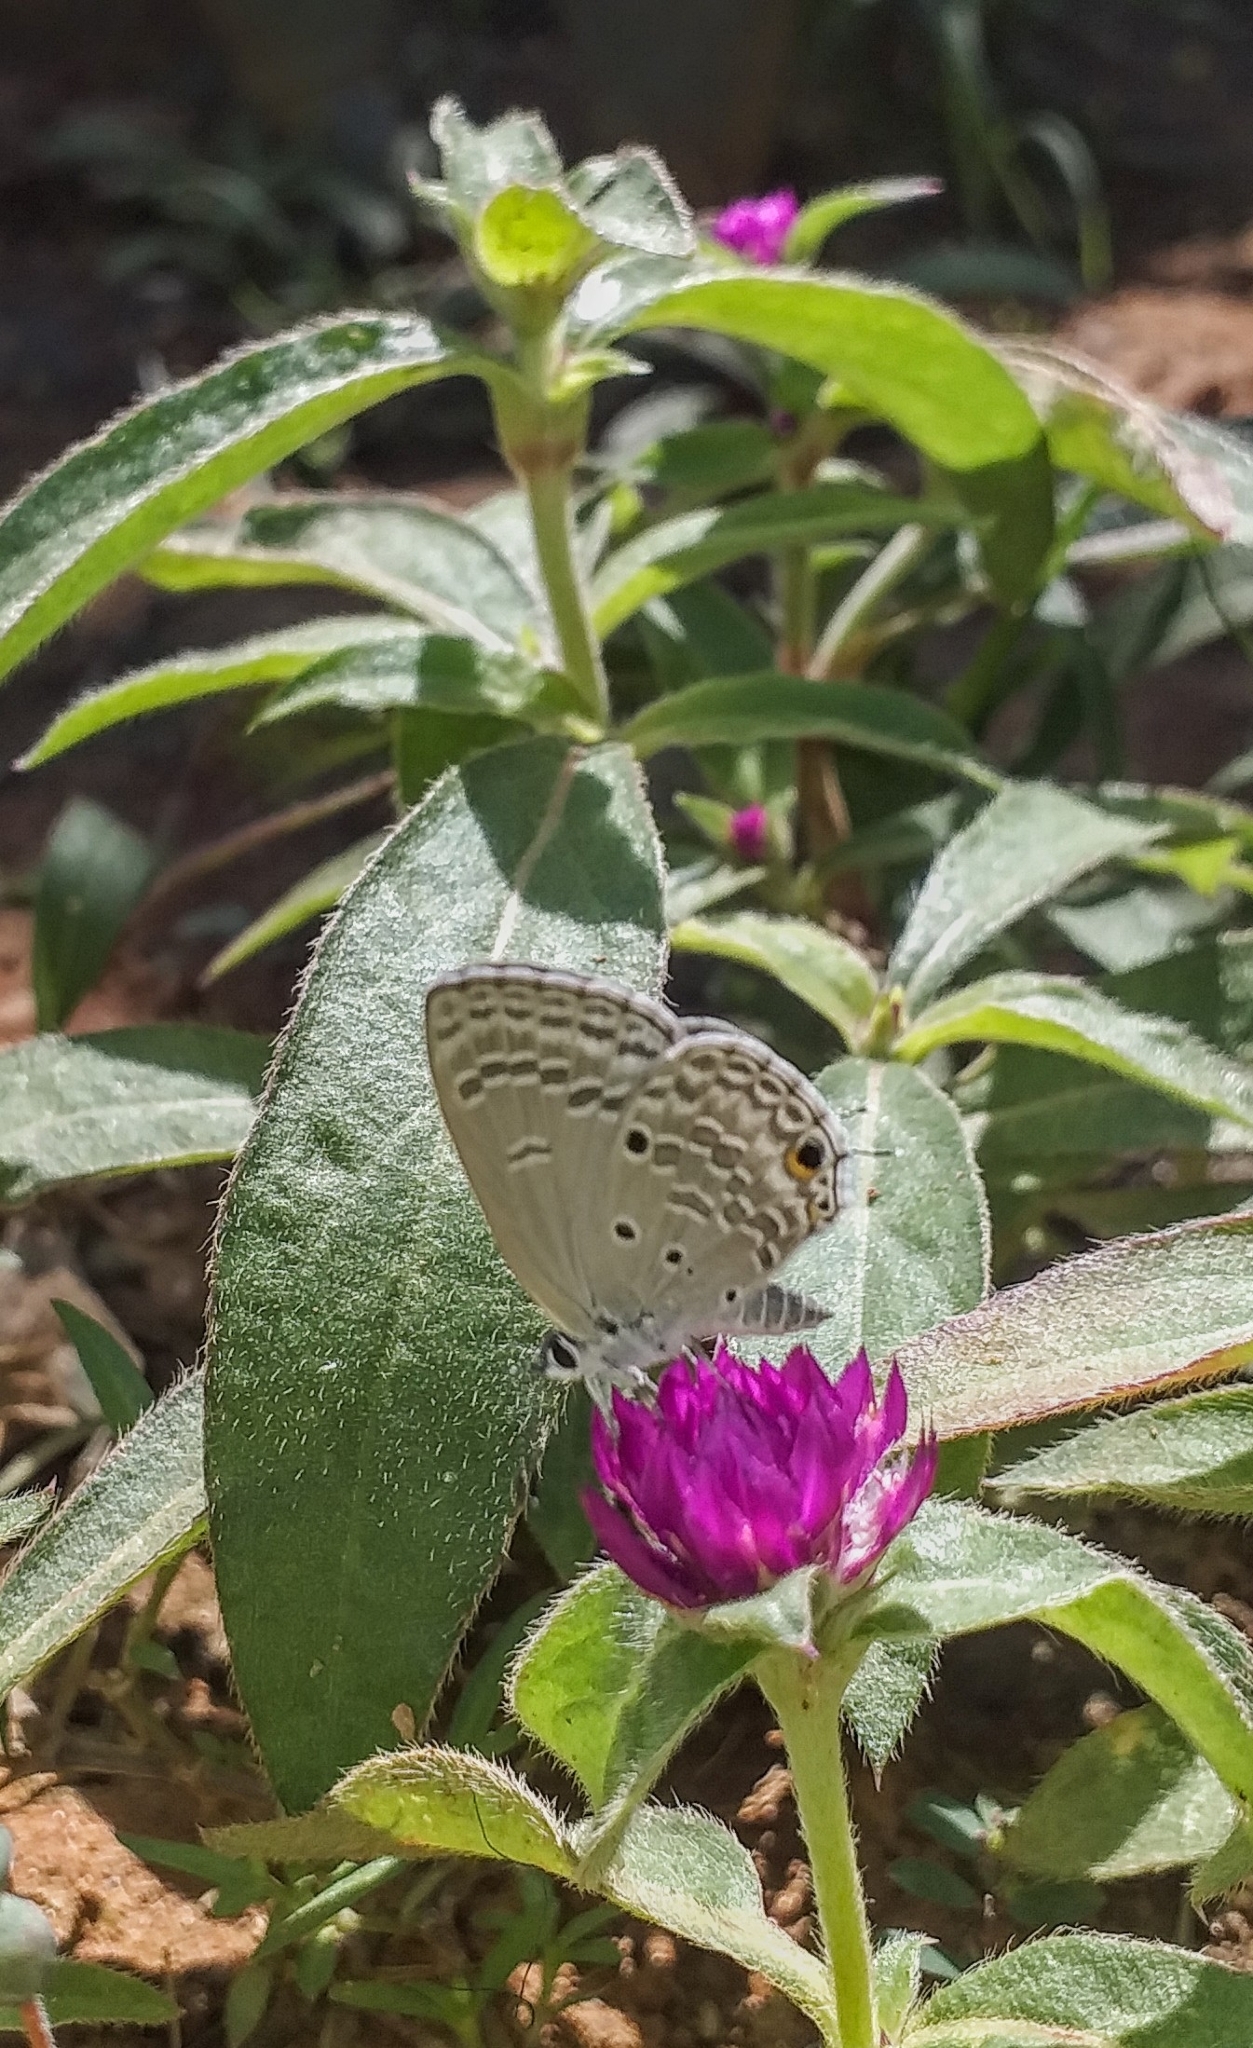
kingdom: Animalia
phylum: Arthropoda
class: Insecta
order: Lepidoptera
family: Lycaenidae
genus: Luthrodes
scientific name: Luthrodes pandava
